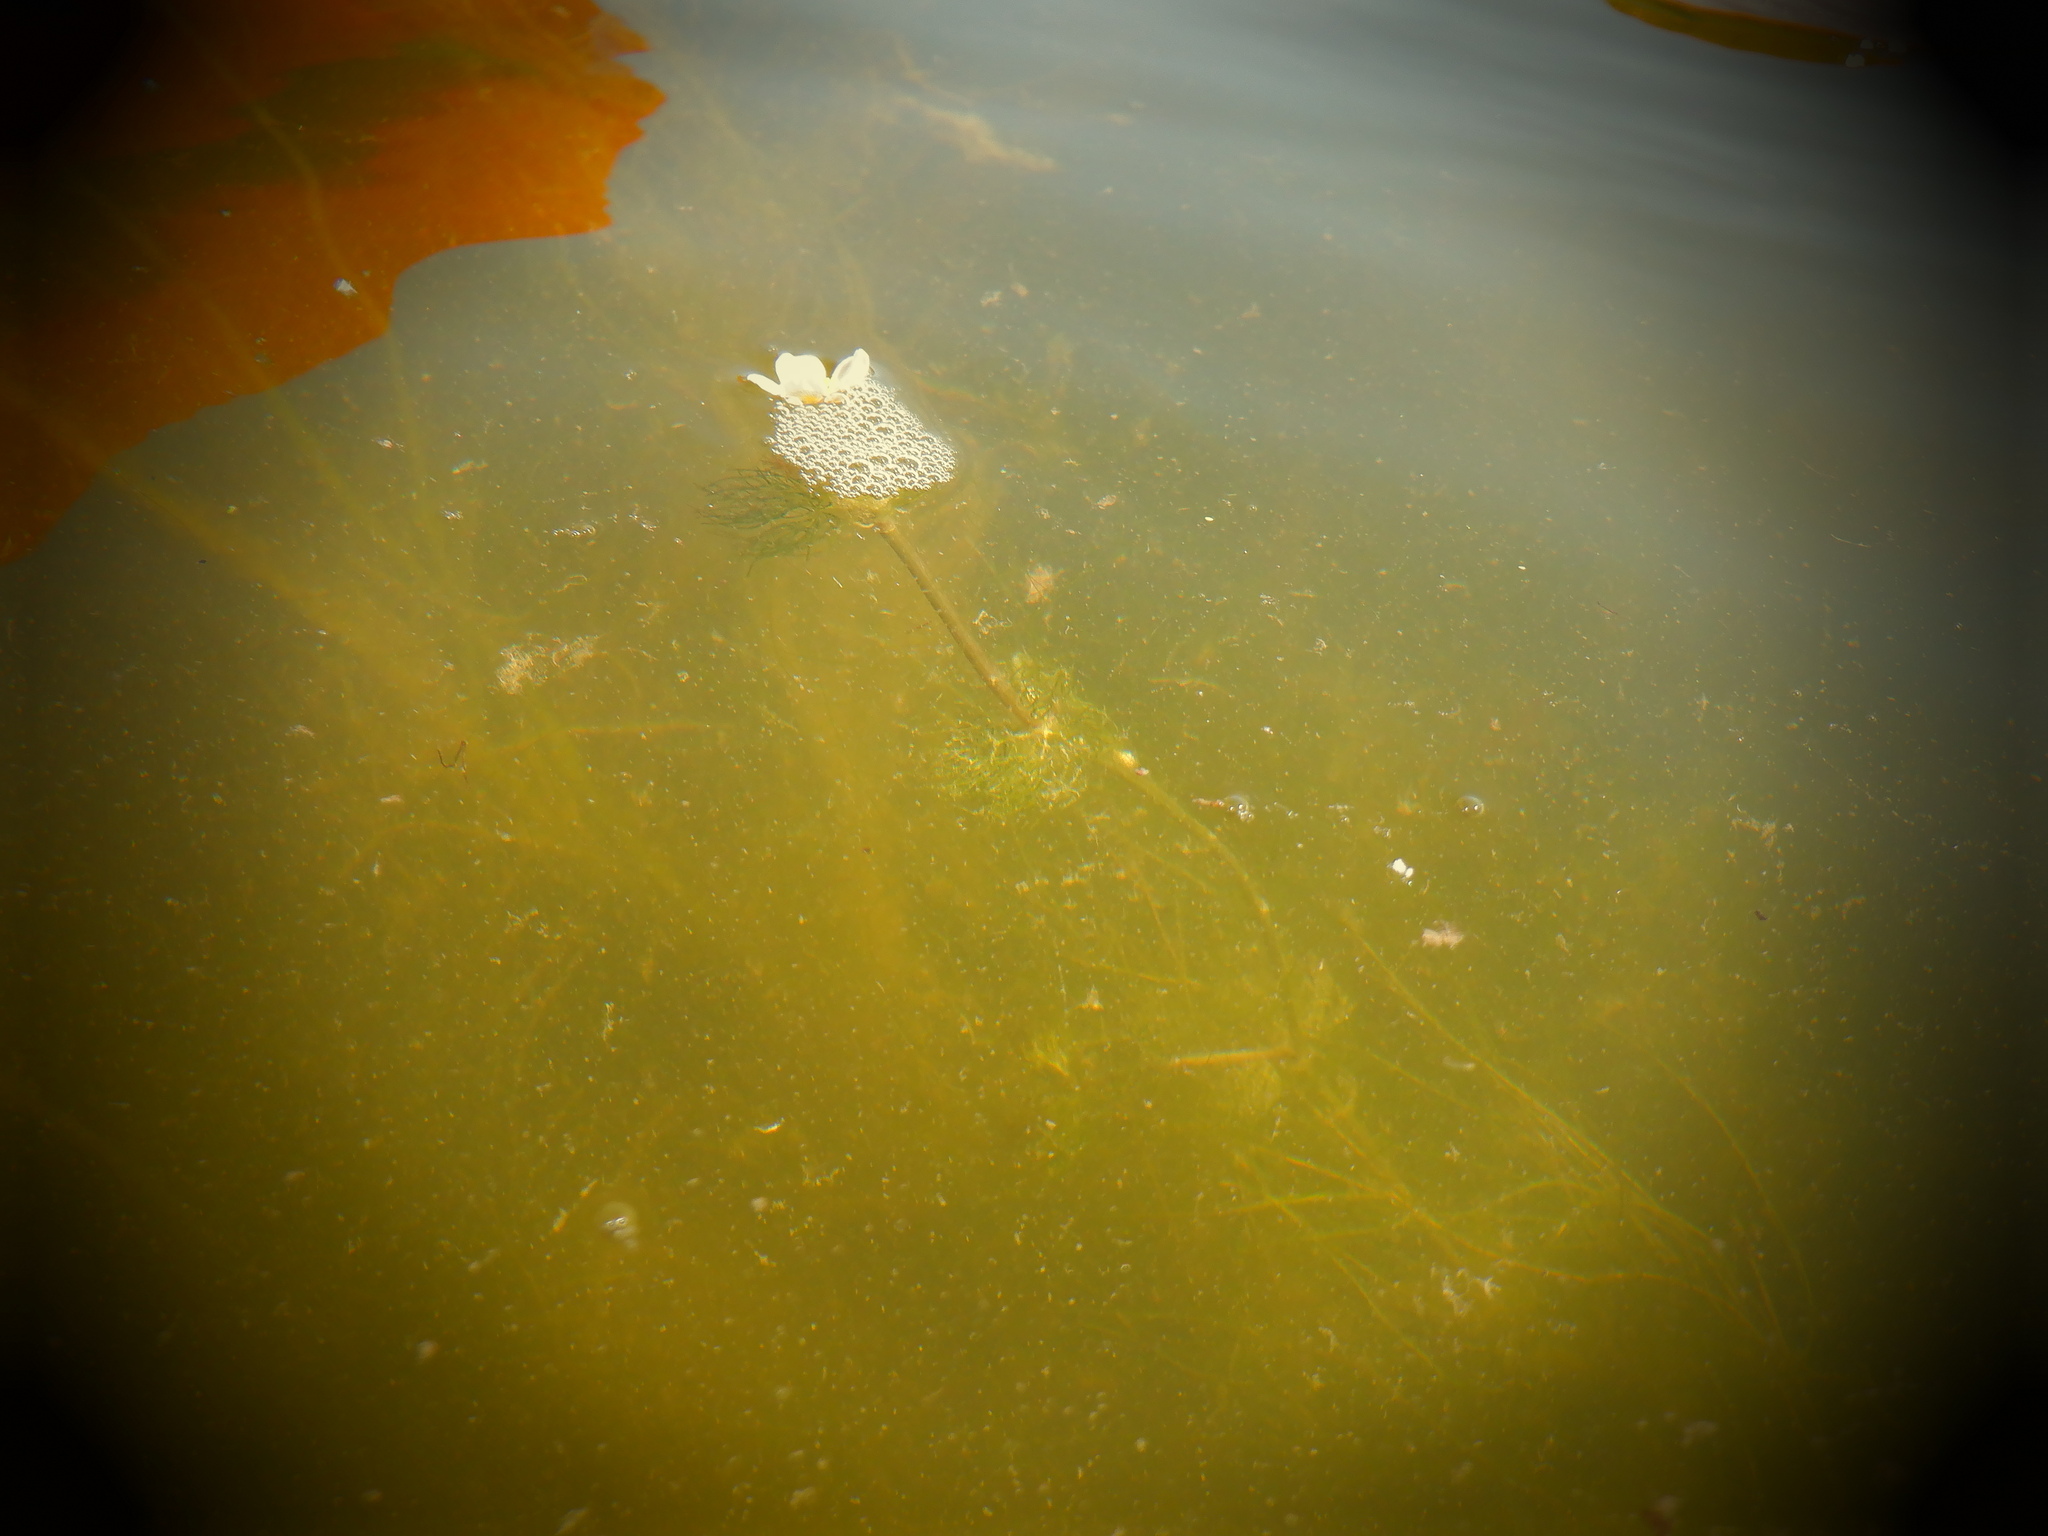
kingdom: Plantae
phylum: Tracheophyta
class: Magnoliopsida
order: Ranunculales
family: Ranunculaceae
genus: Ranunculus
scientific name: Ranunculus aquatilis
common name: Common water-crowfoot
